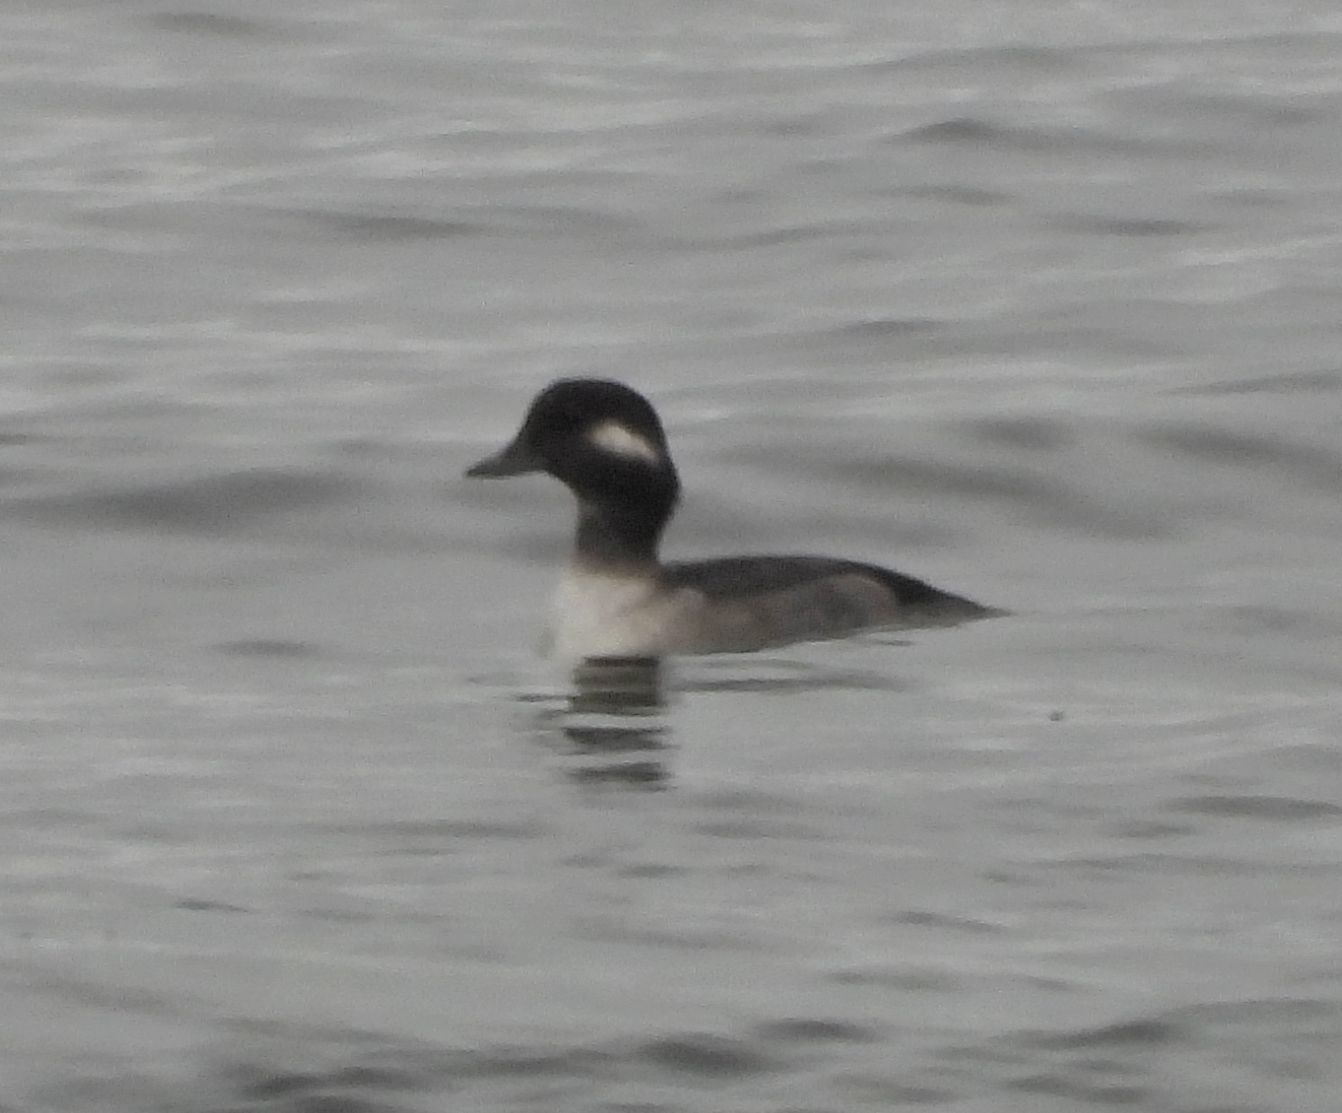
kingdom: Animalia
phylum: Chordata
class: Aves
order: Anseriformes
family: Anatidae
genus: Bucephala
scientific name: Bucephala albeola
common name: Bufflehead
